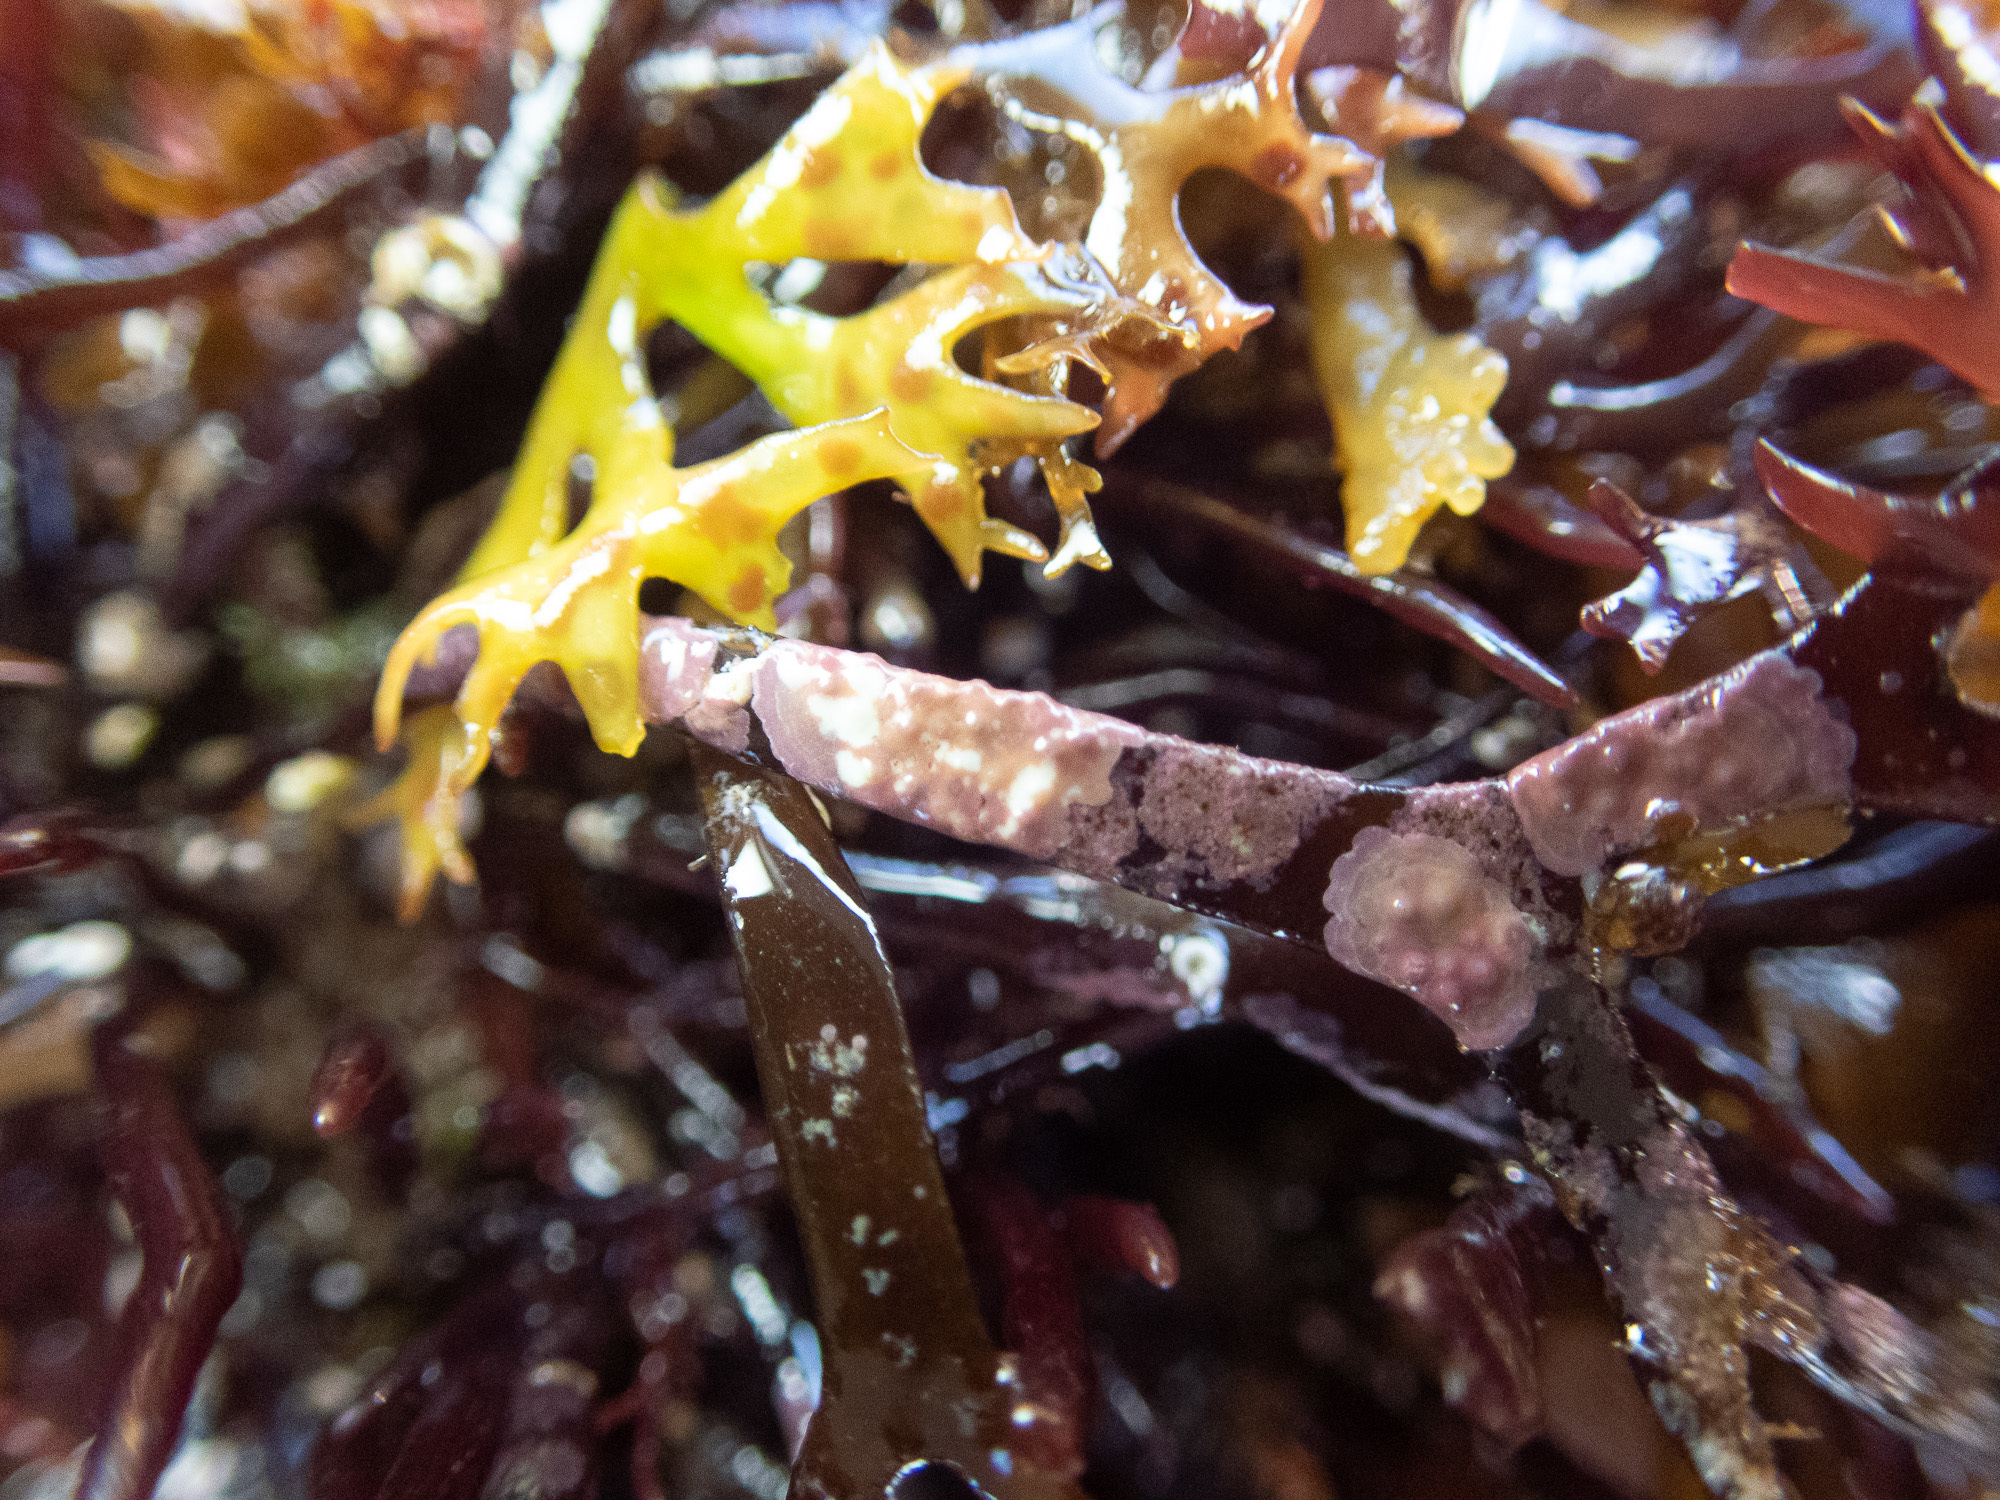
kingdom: Plantae
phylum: Rhodophyta
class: Florideophyceae
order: Corallinales
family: Lithophyllaceae
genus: Lithophyllum
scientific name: Lithophyllum pustulatum
